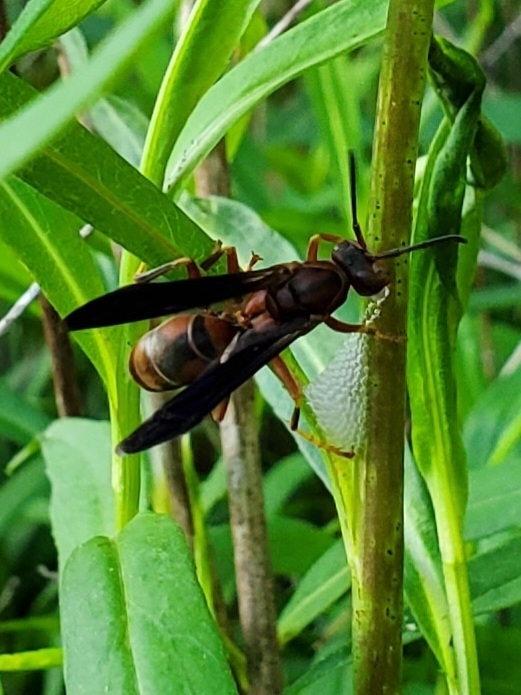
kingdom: Animalia
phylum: Arthropoda
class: Insecta
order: Hymenoptera
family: Eumenidae
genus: Polistes
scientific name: Polistes fuscatus
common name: Dark paper wasp
